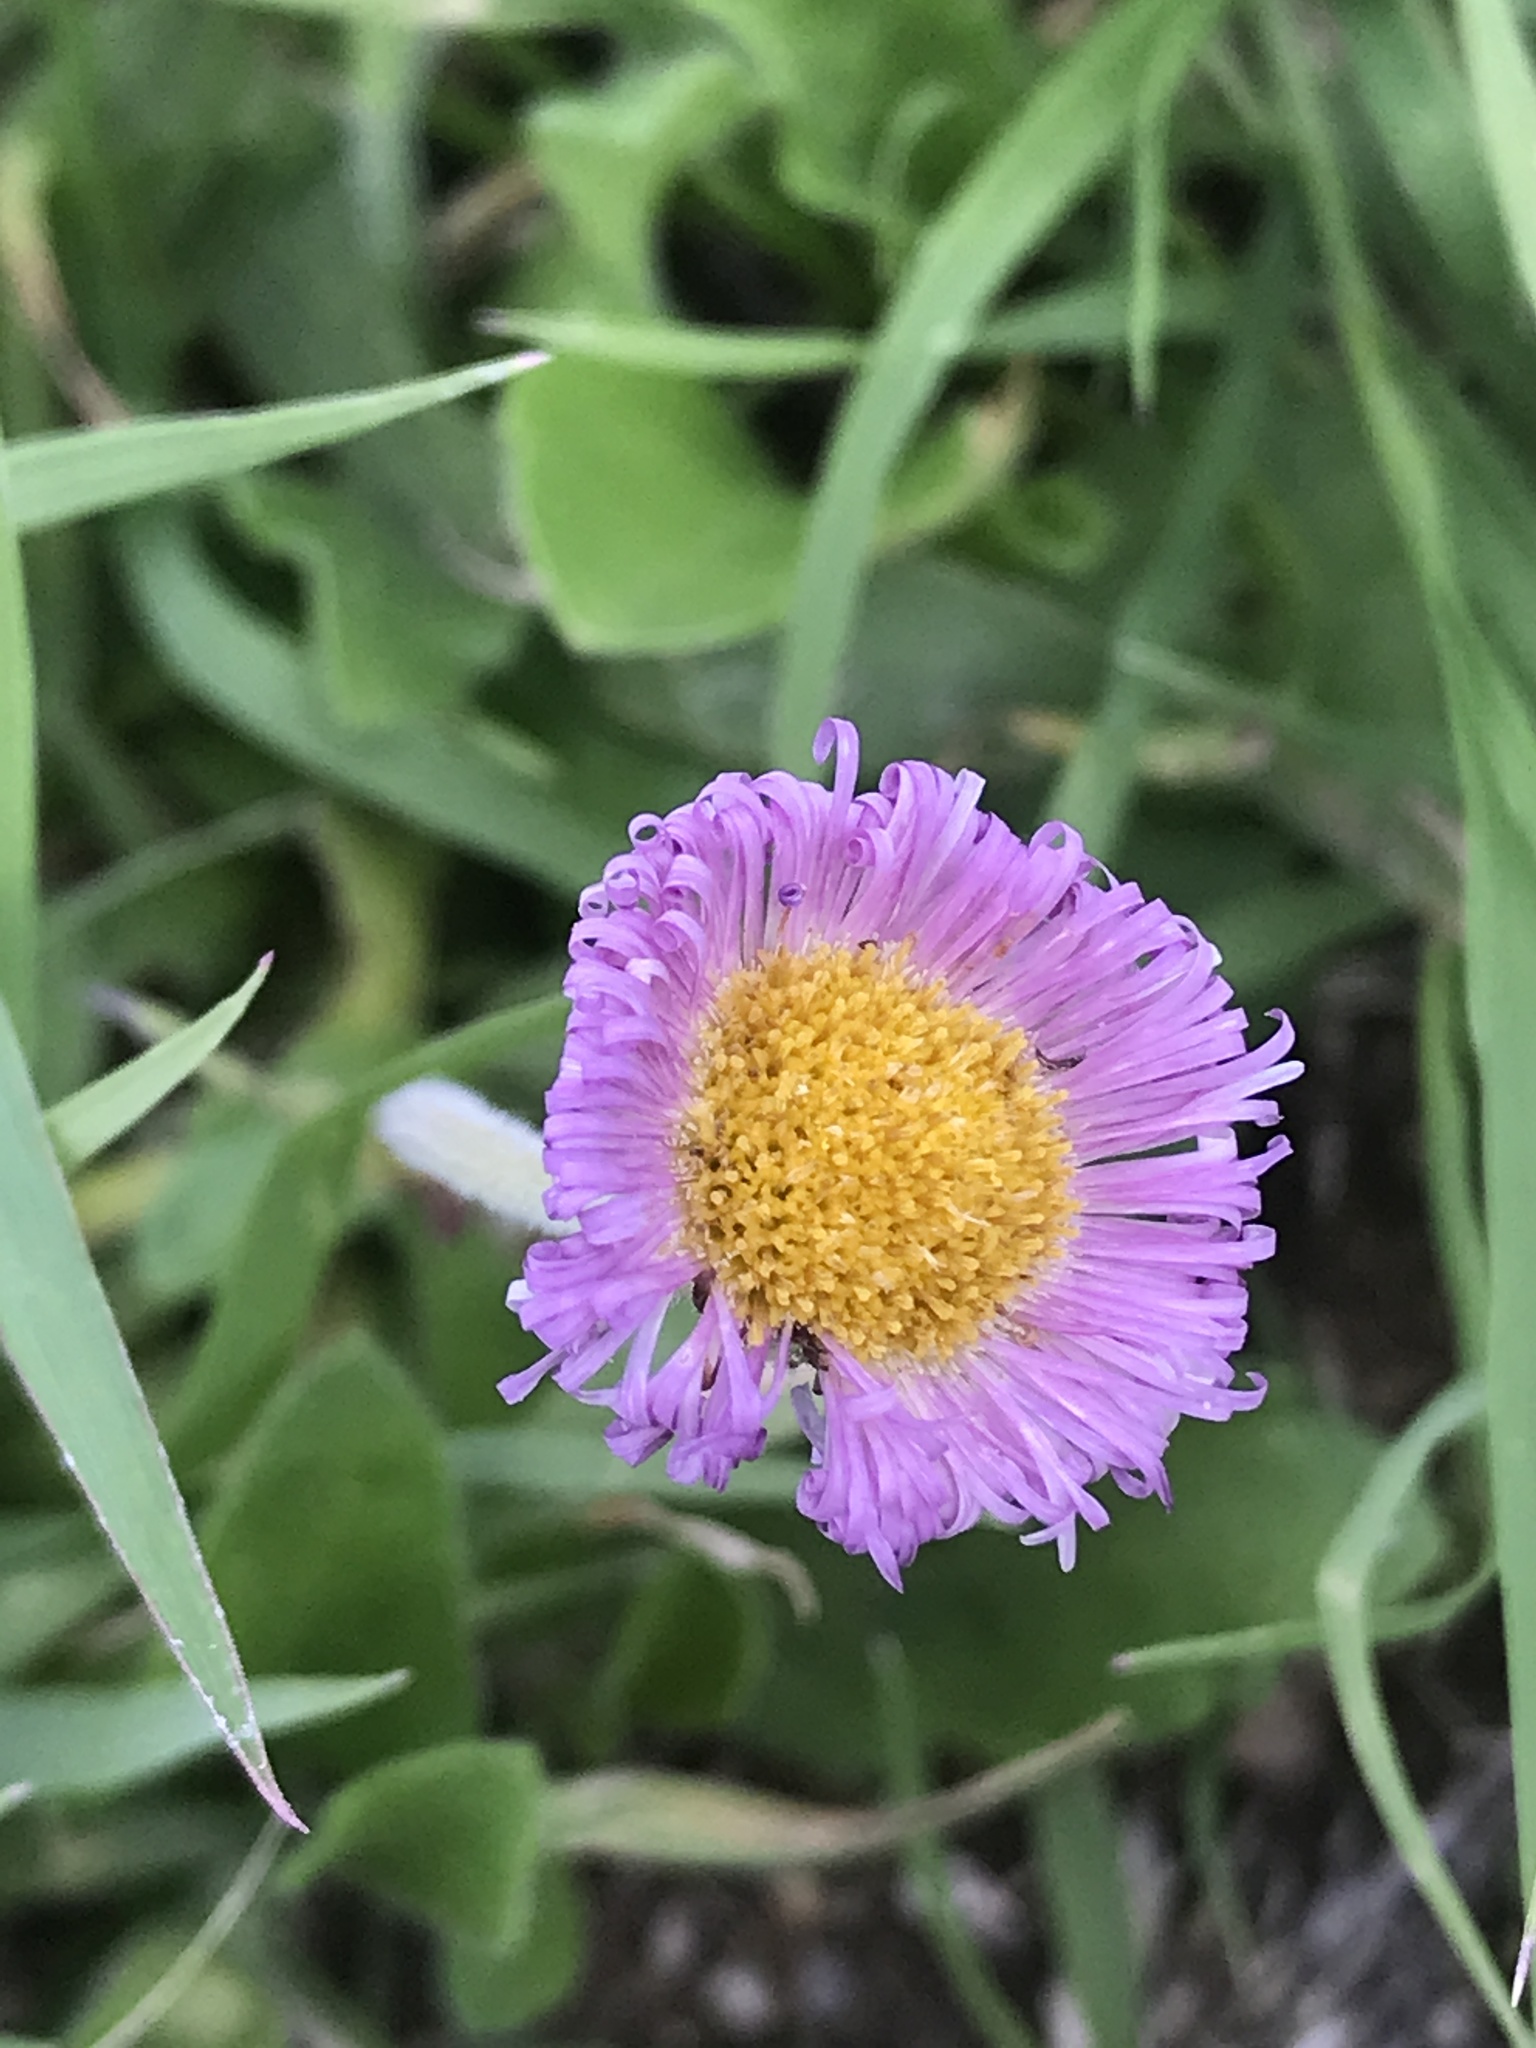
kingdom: Plantae
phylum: Tracheophyta
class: Magnoliopsida
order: Asterales
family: Asteraceae
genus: Erigeron
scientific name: Erigeron longipes
